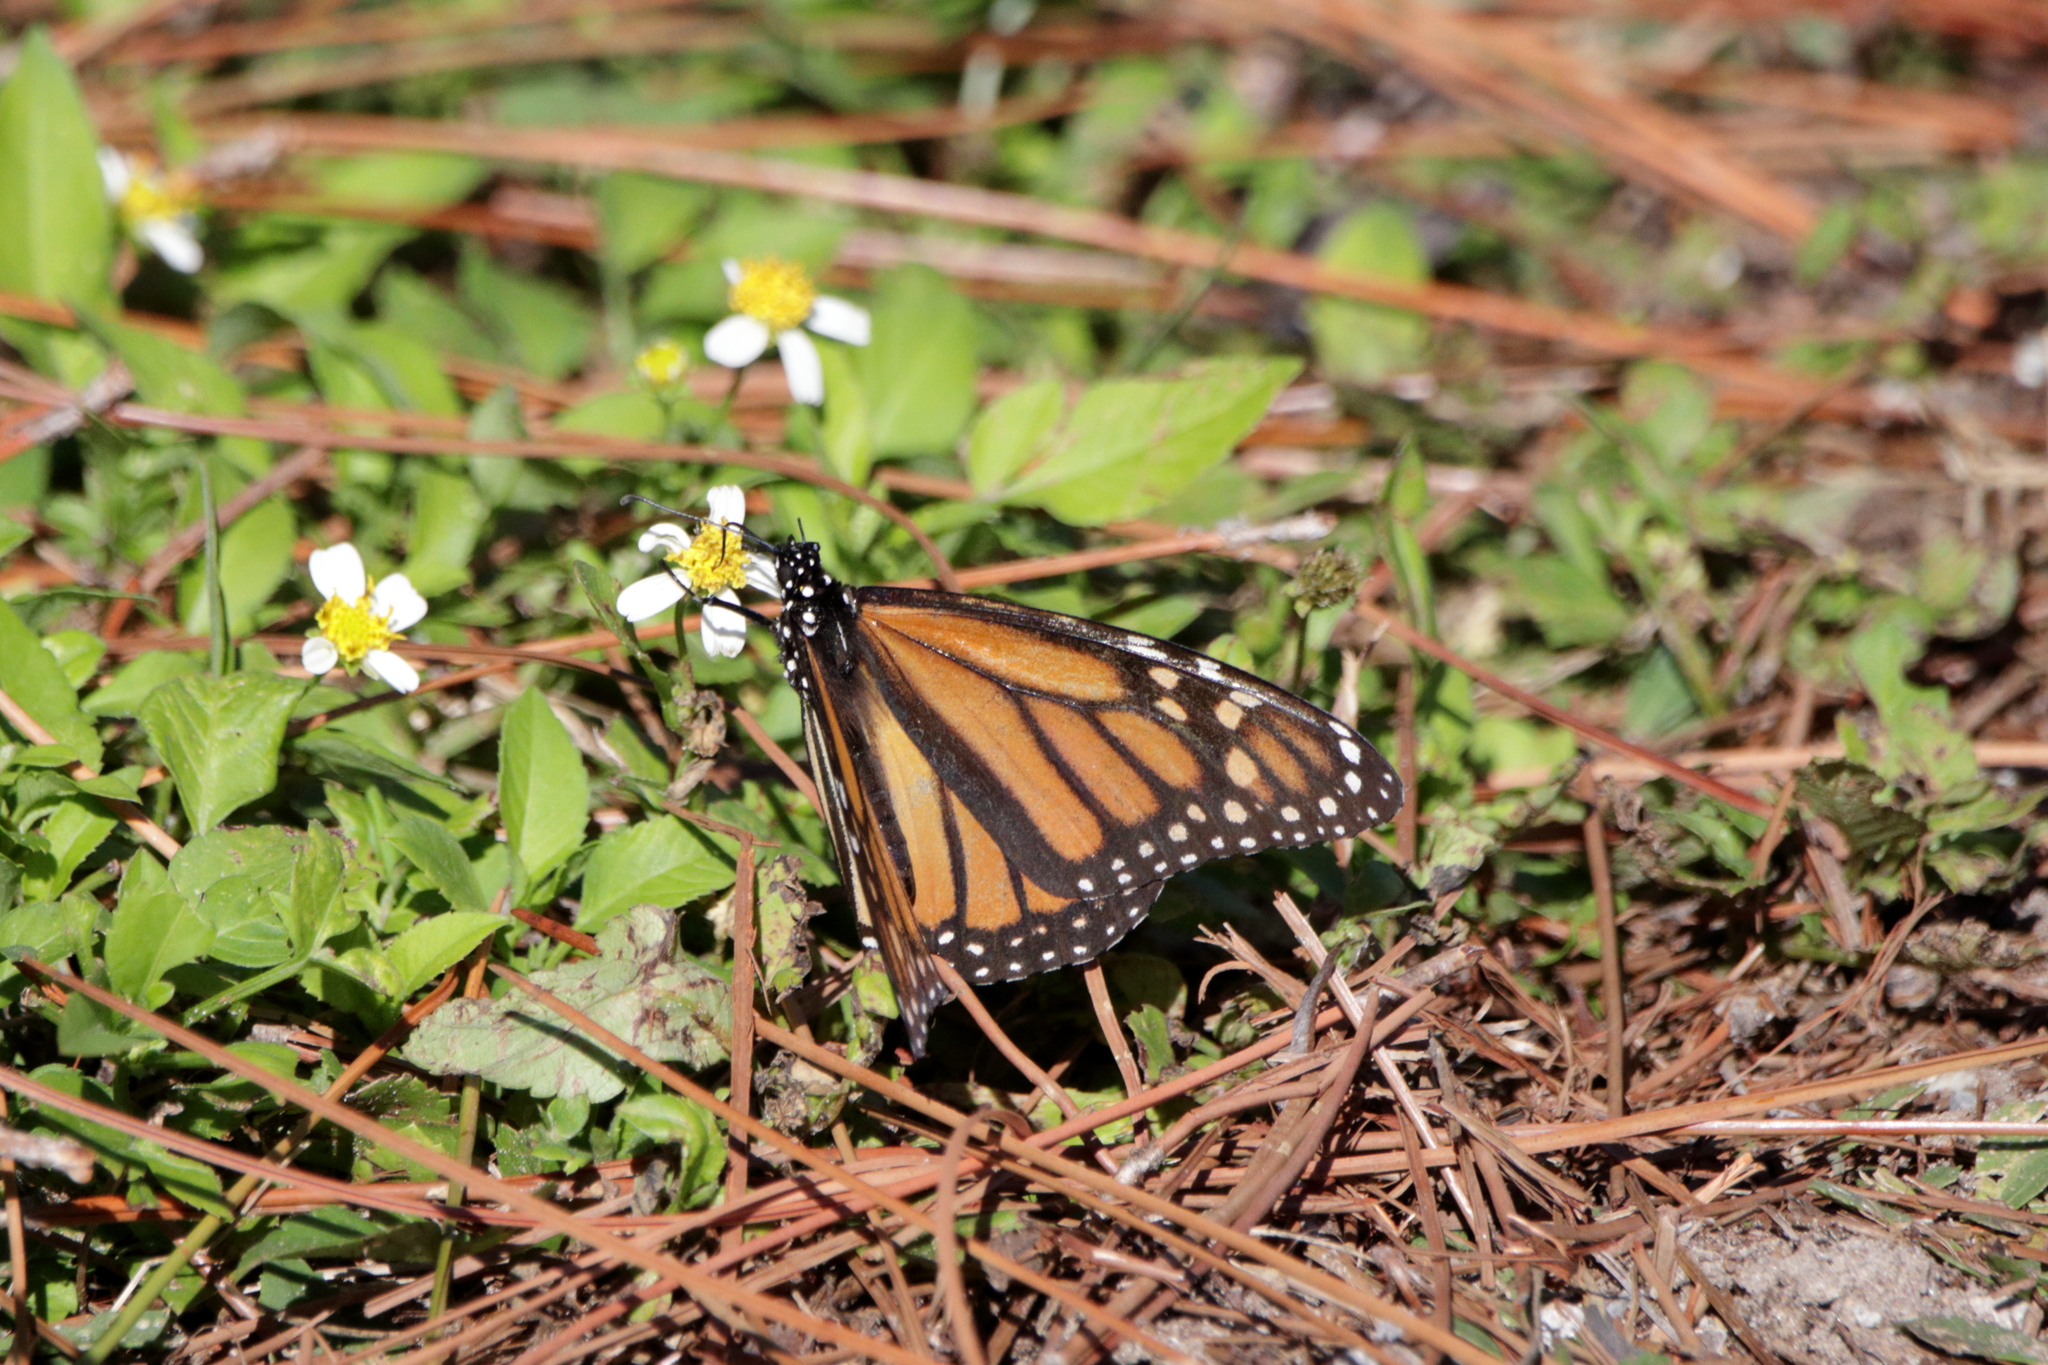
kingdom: Animalia
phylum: Arthropoda
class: Insecta
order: Lepidoptera
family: Nymphalidae
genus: Danaus
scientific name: Danaus plexippus
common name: Monarch
